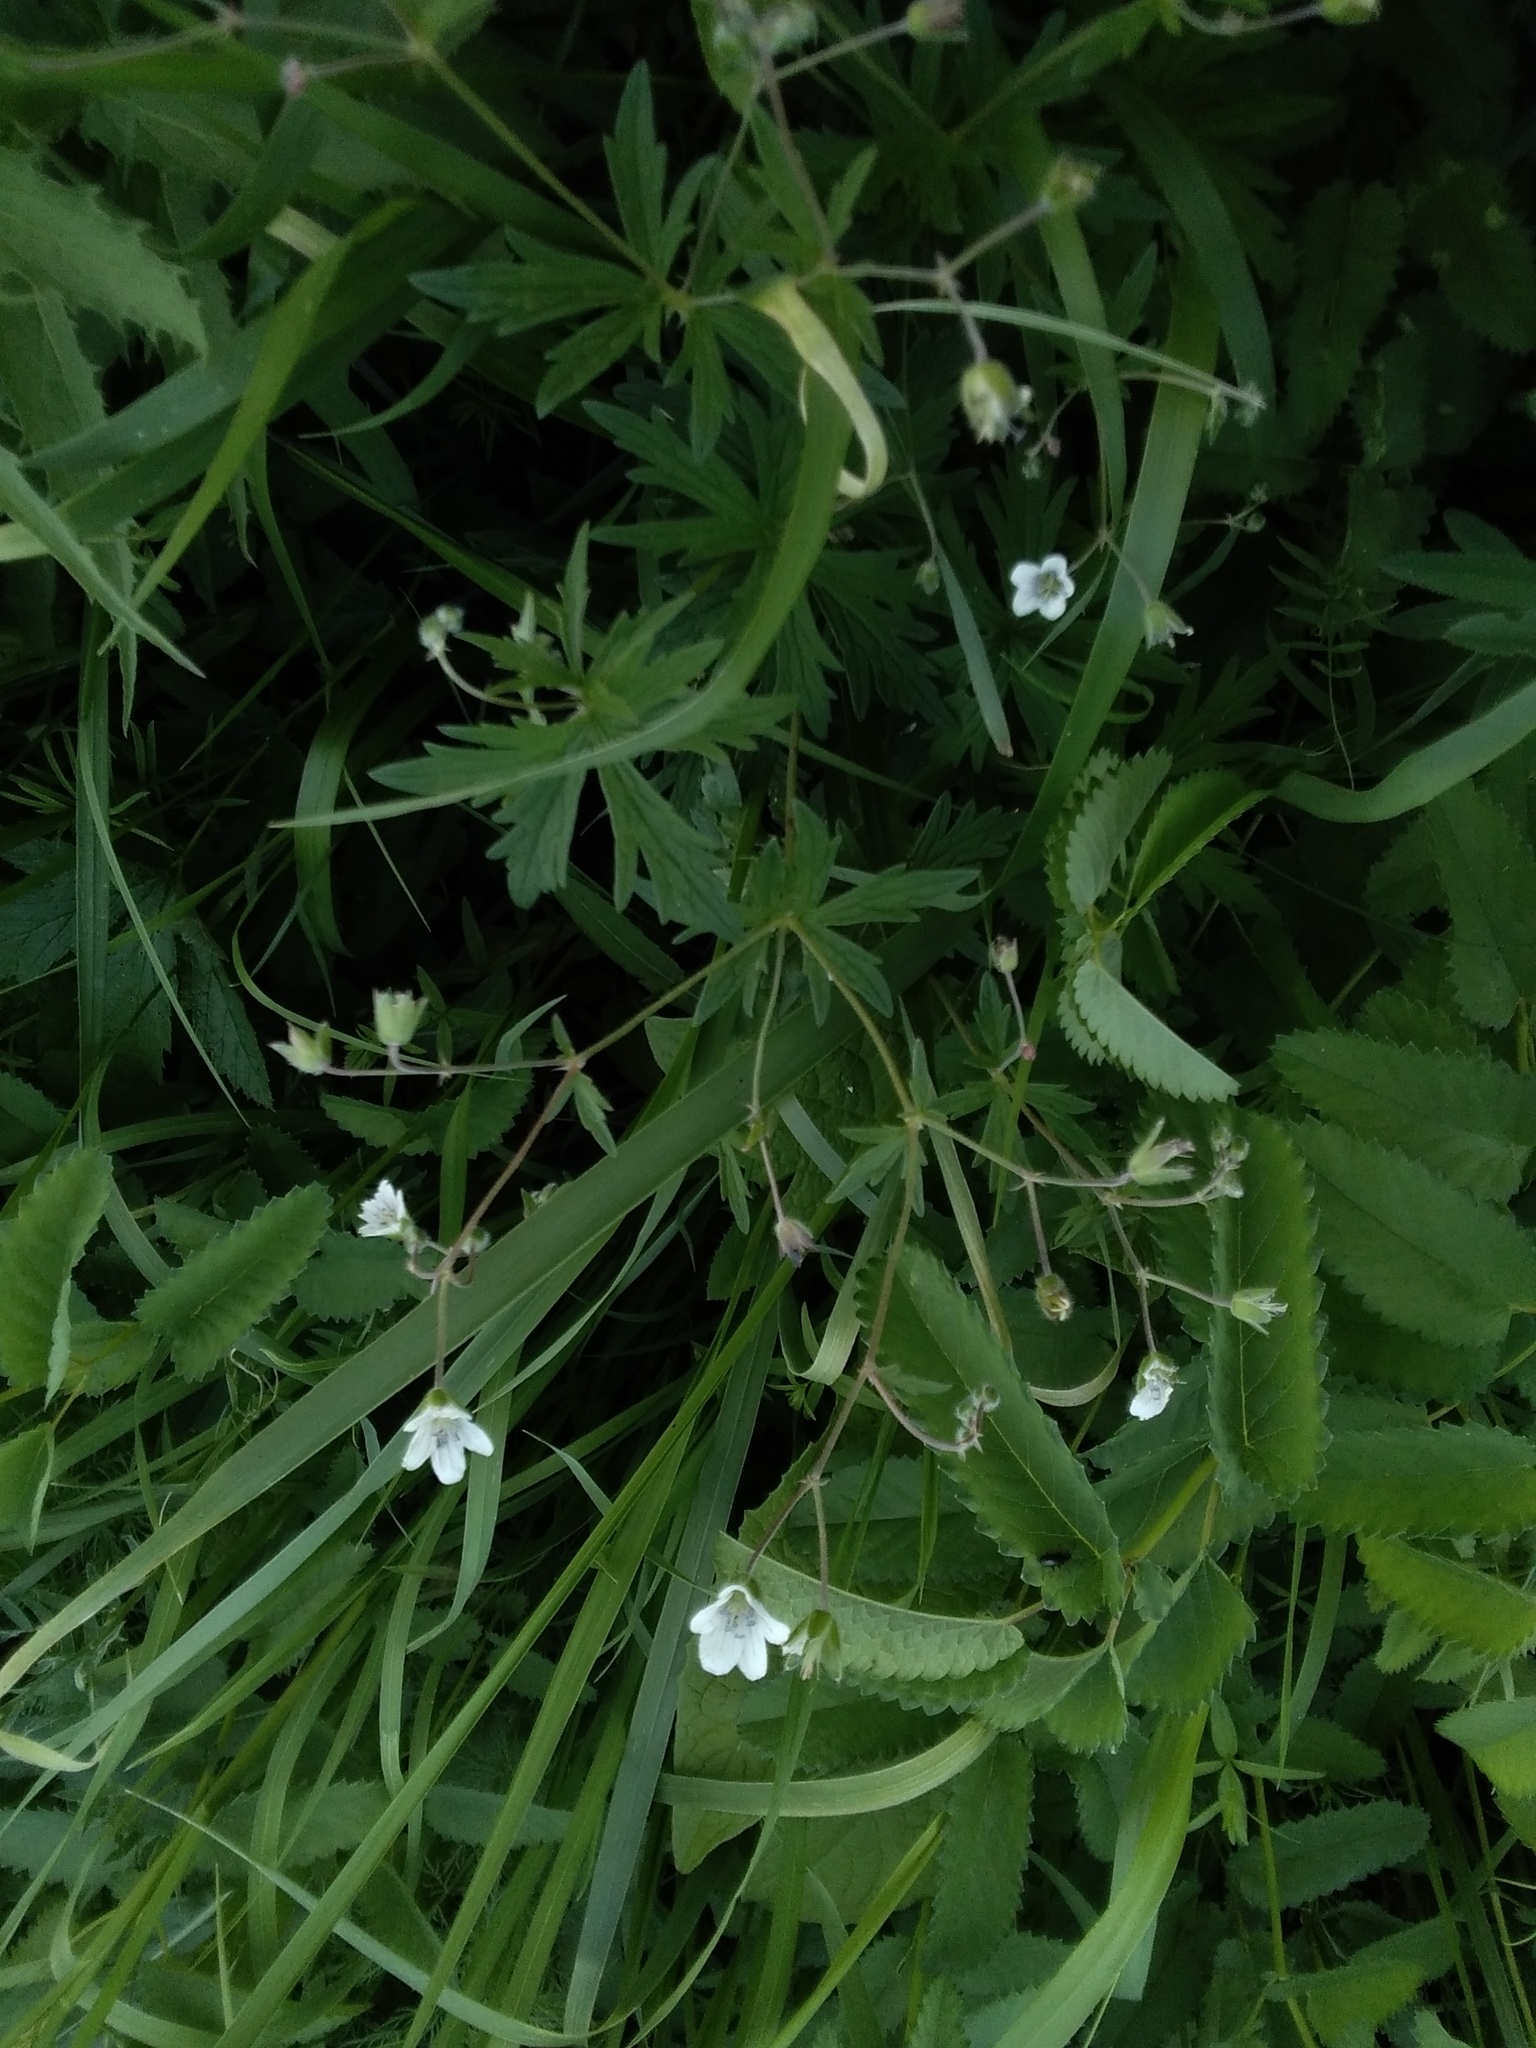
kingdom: Plantae
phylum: Tracheophyta
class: Magnoliopsida
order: Geraniales
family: Geraniaceae
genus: Geranium
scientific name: Geranium pseudosibiricum
